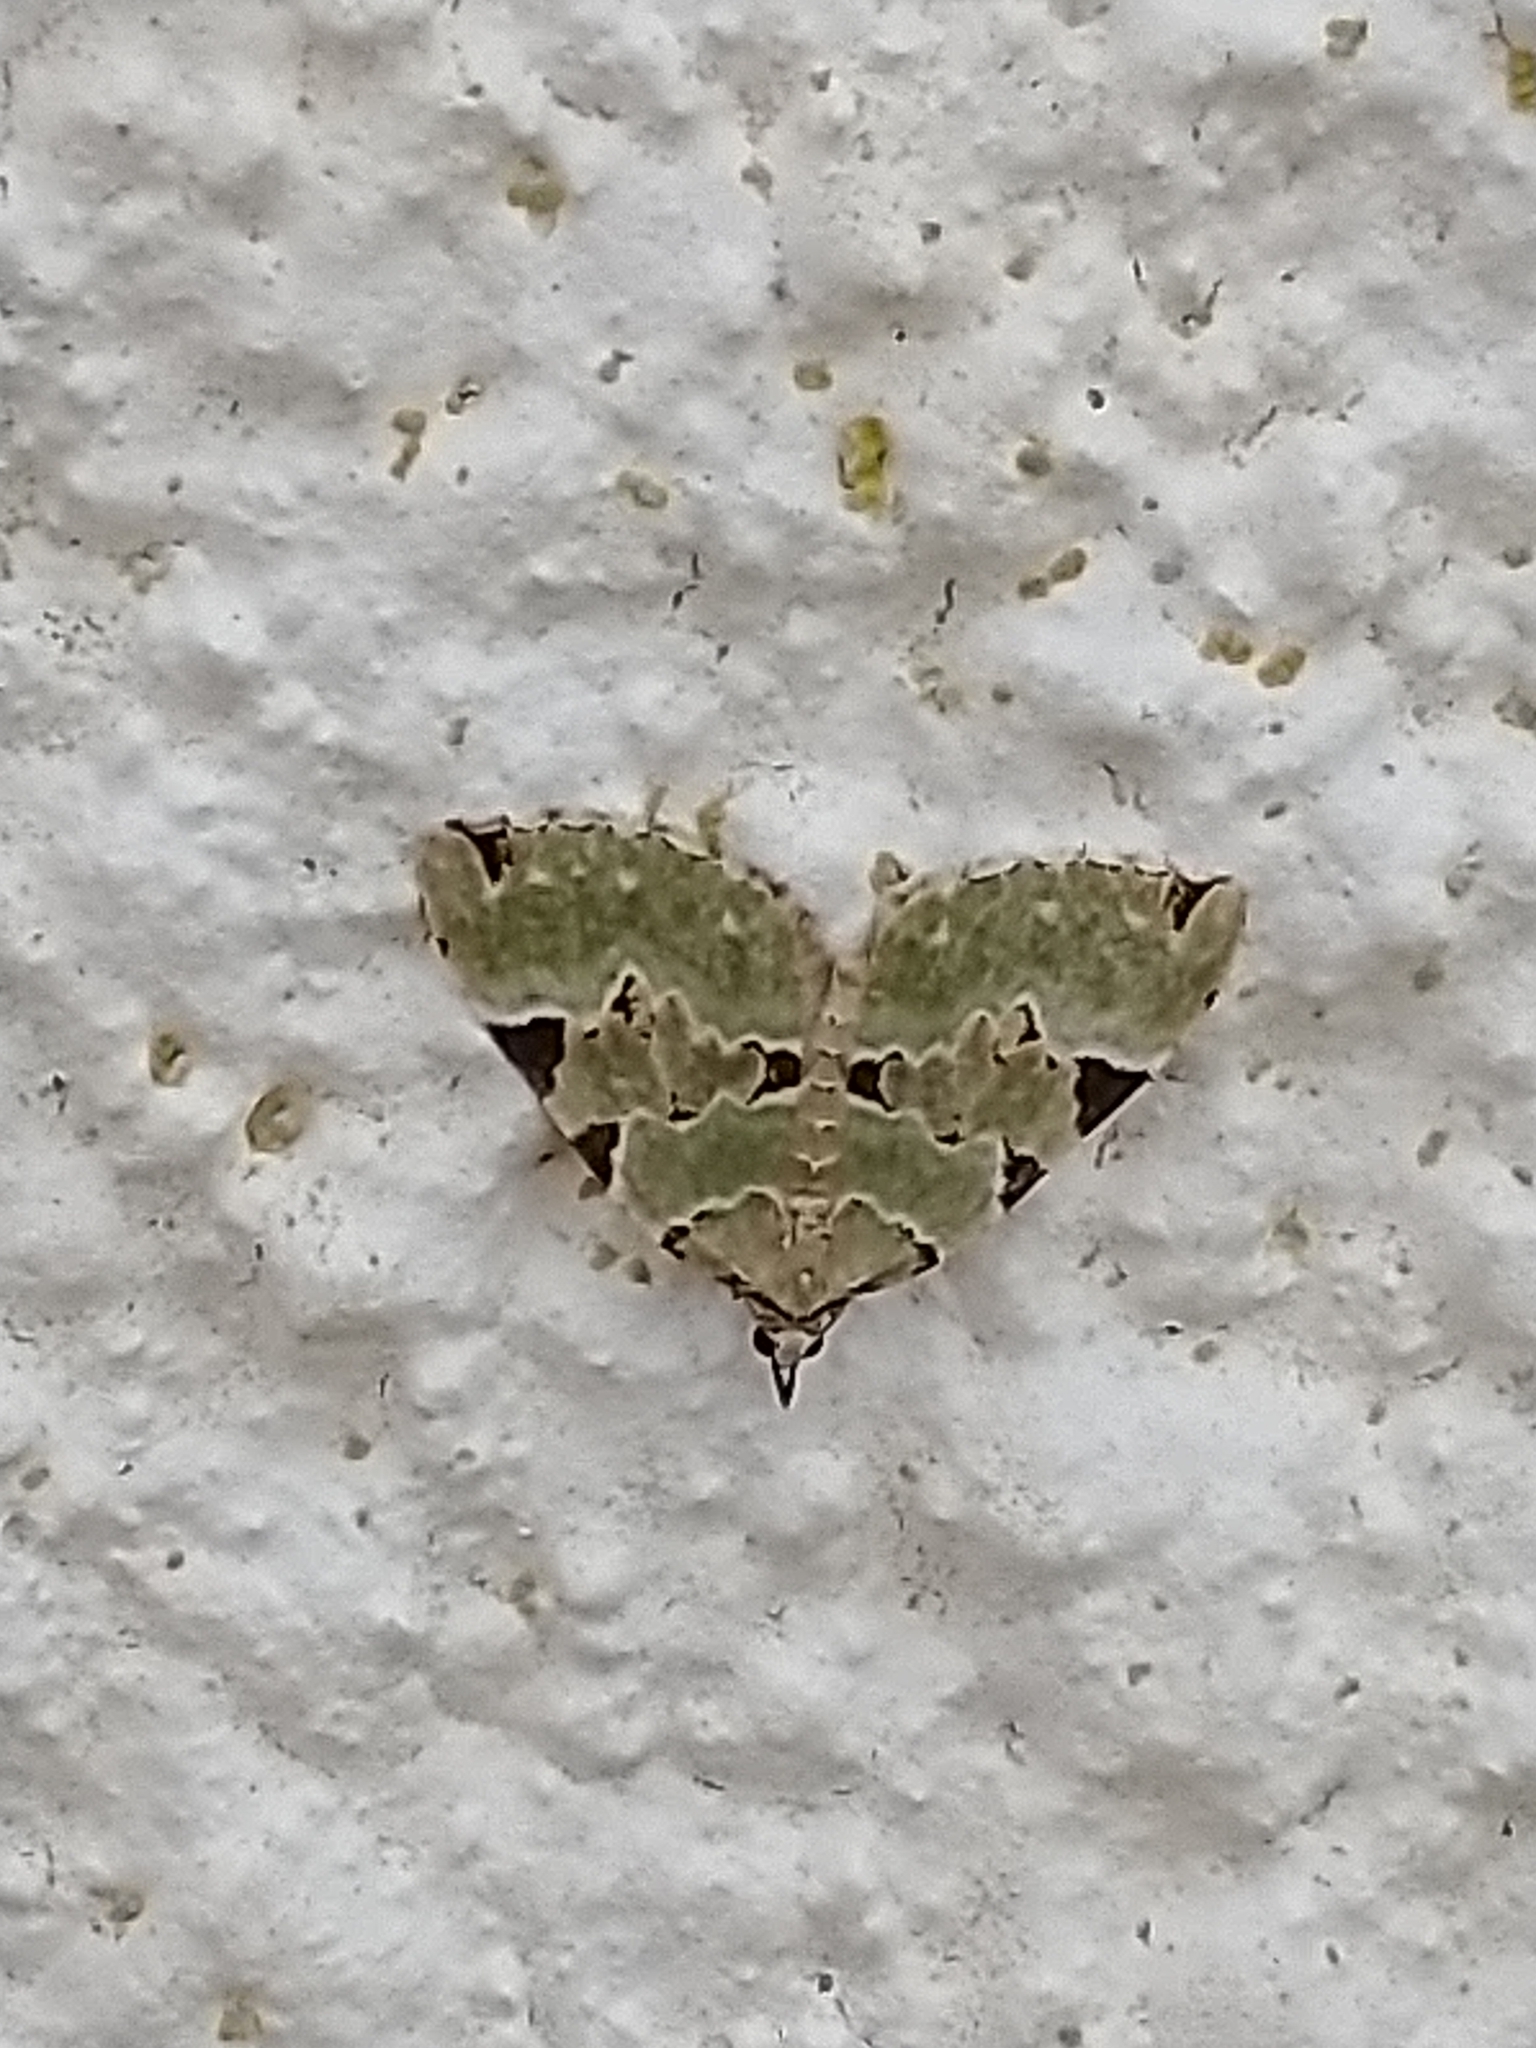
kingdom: Animalia
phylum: Arthropoda
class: Insecta
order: Lepidoptera
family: Geometridae
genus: Colostygia
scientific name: Colostygia pectinataria
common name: Green carpet
